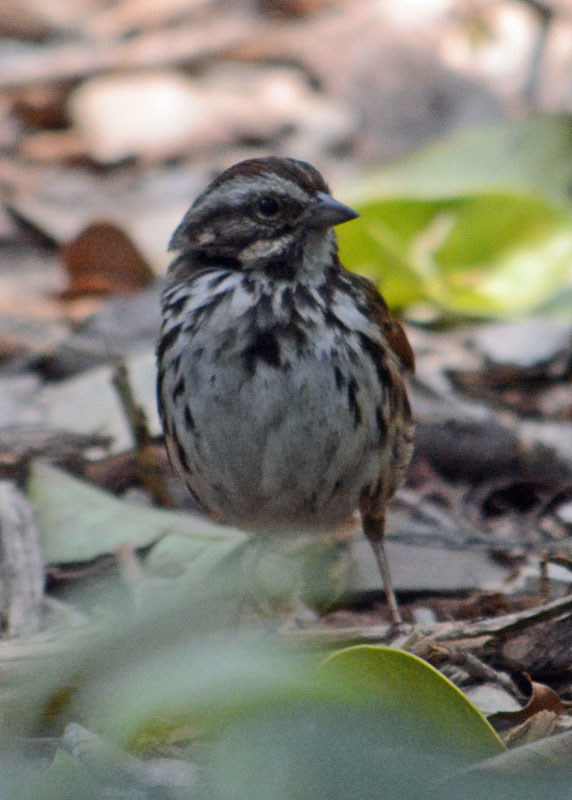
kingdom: Animalia
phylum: Chordata
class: Aves
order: Passeriformes
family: Passerellidae
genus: Melospiza
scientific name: Melospiza melodia
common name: Song sparrow
